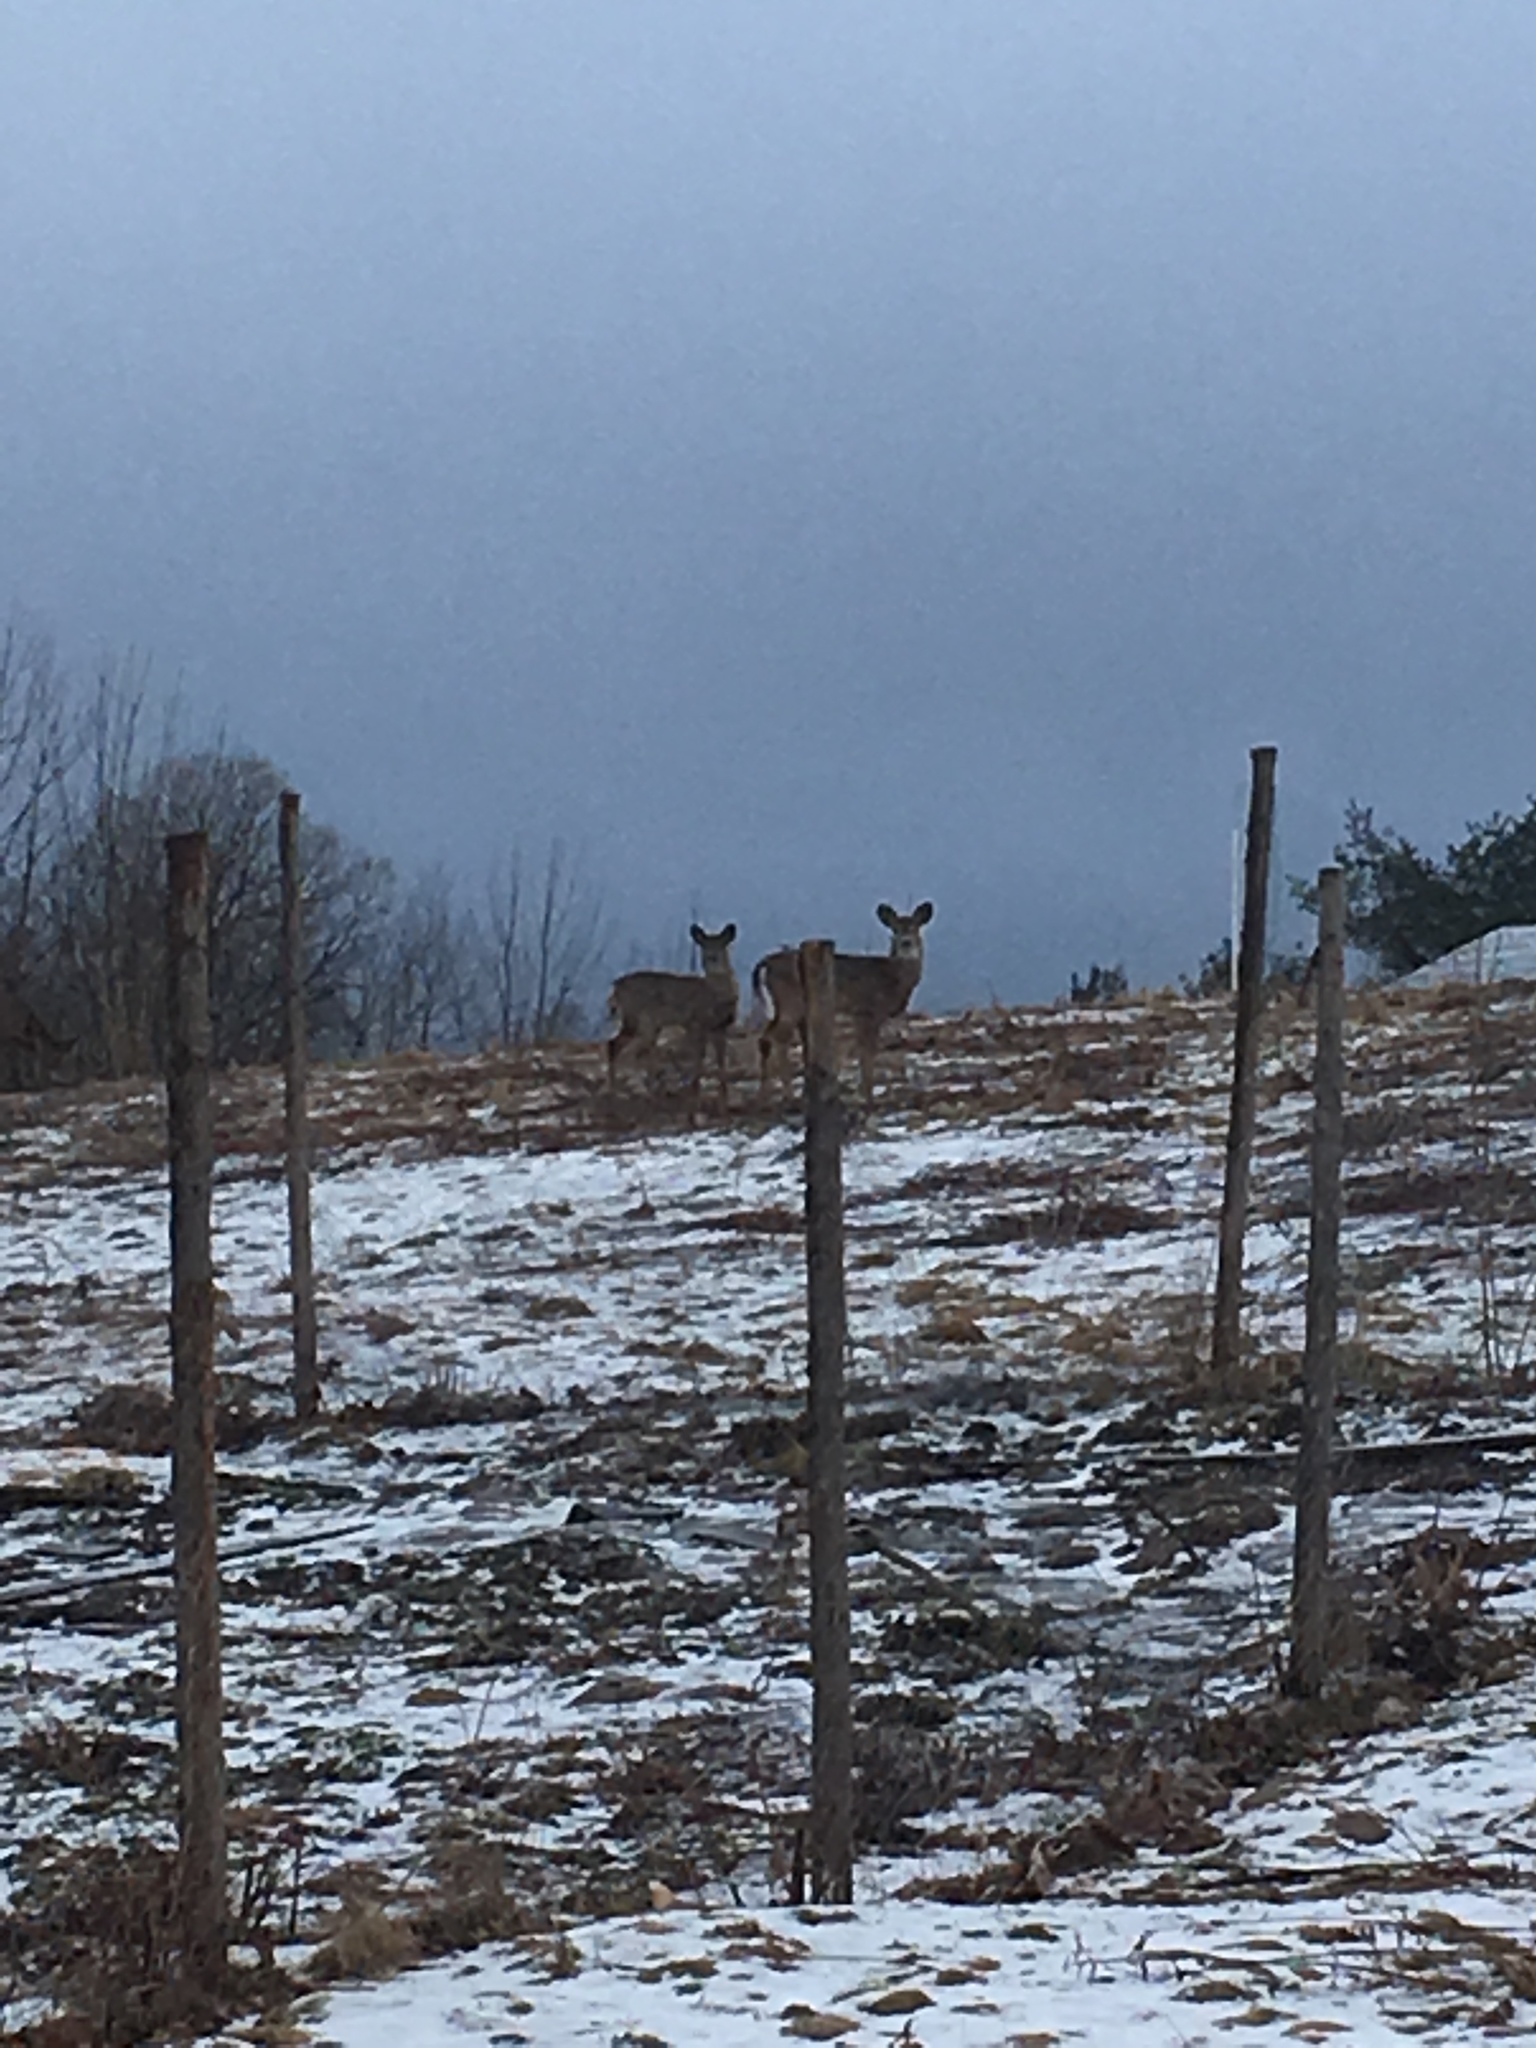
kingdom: Animalia
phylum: Chordata
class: Mammalia
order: Artiodactyla
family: Cervidae
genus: Odocoileus
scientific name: Odocoileus virginianus
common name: White-tailed deer
